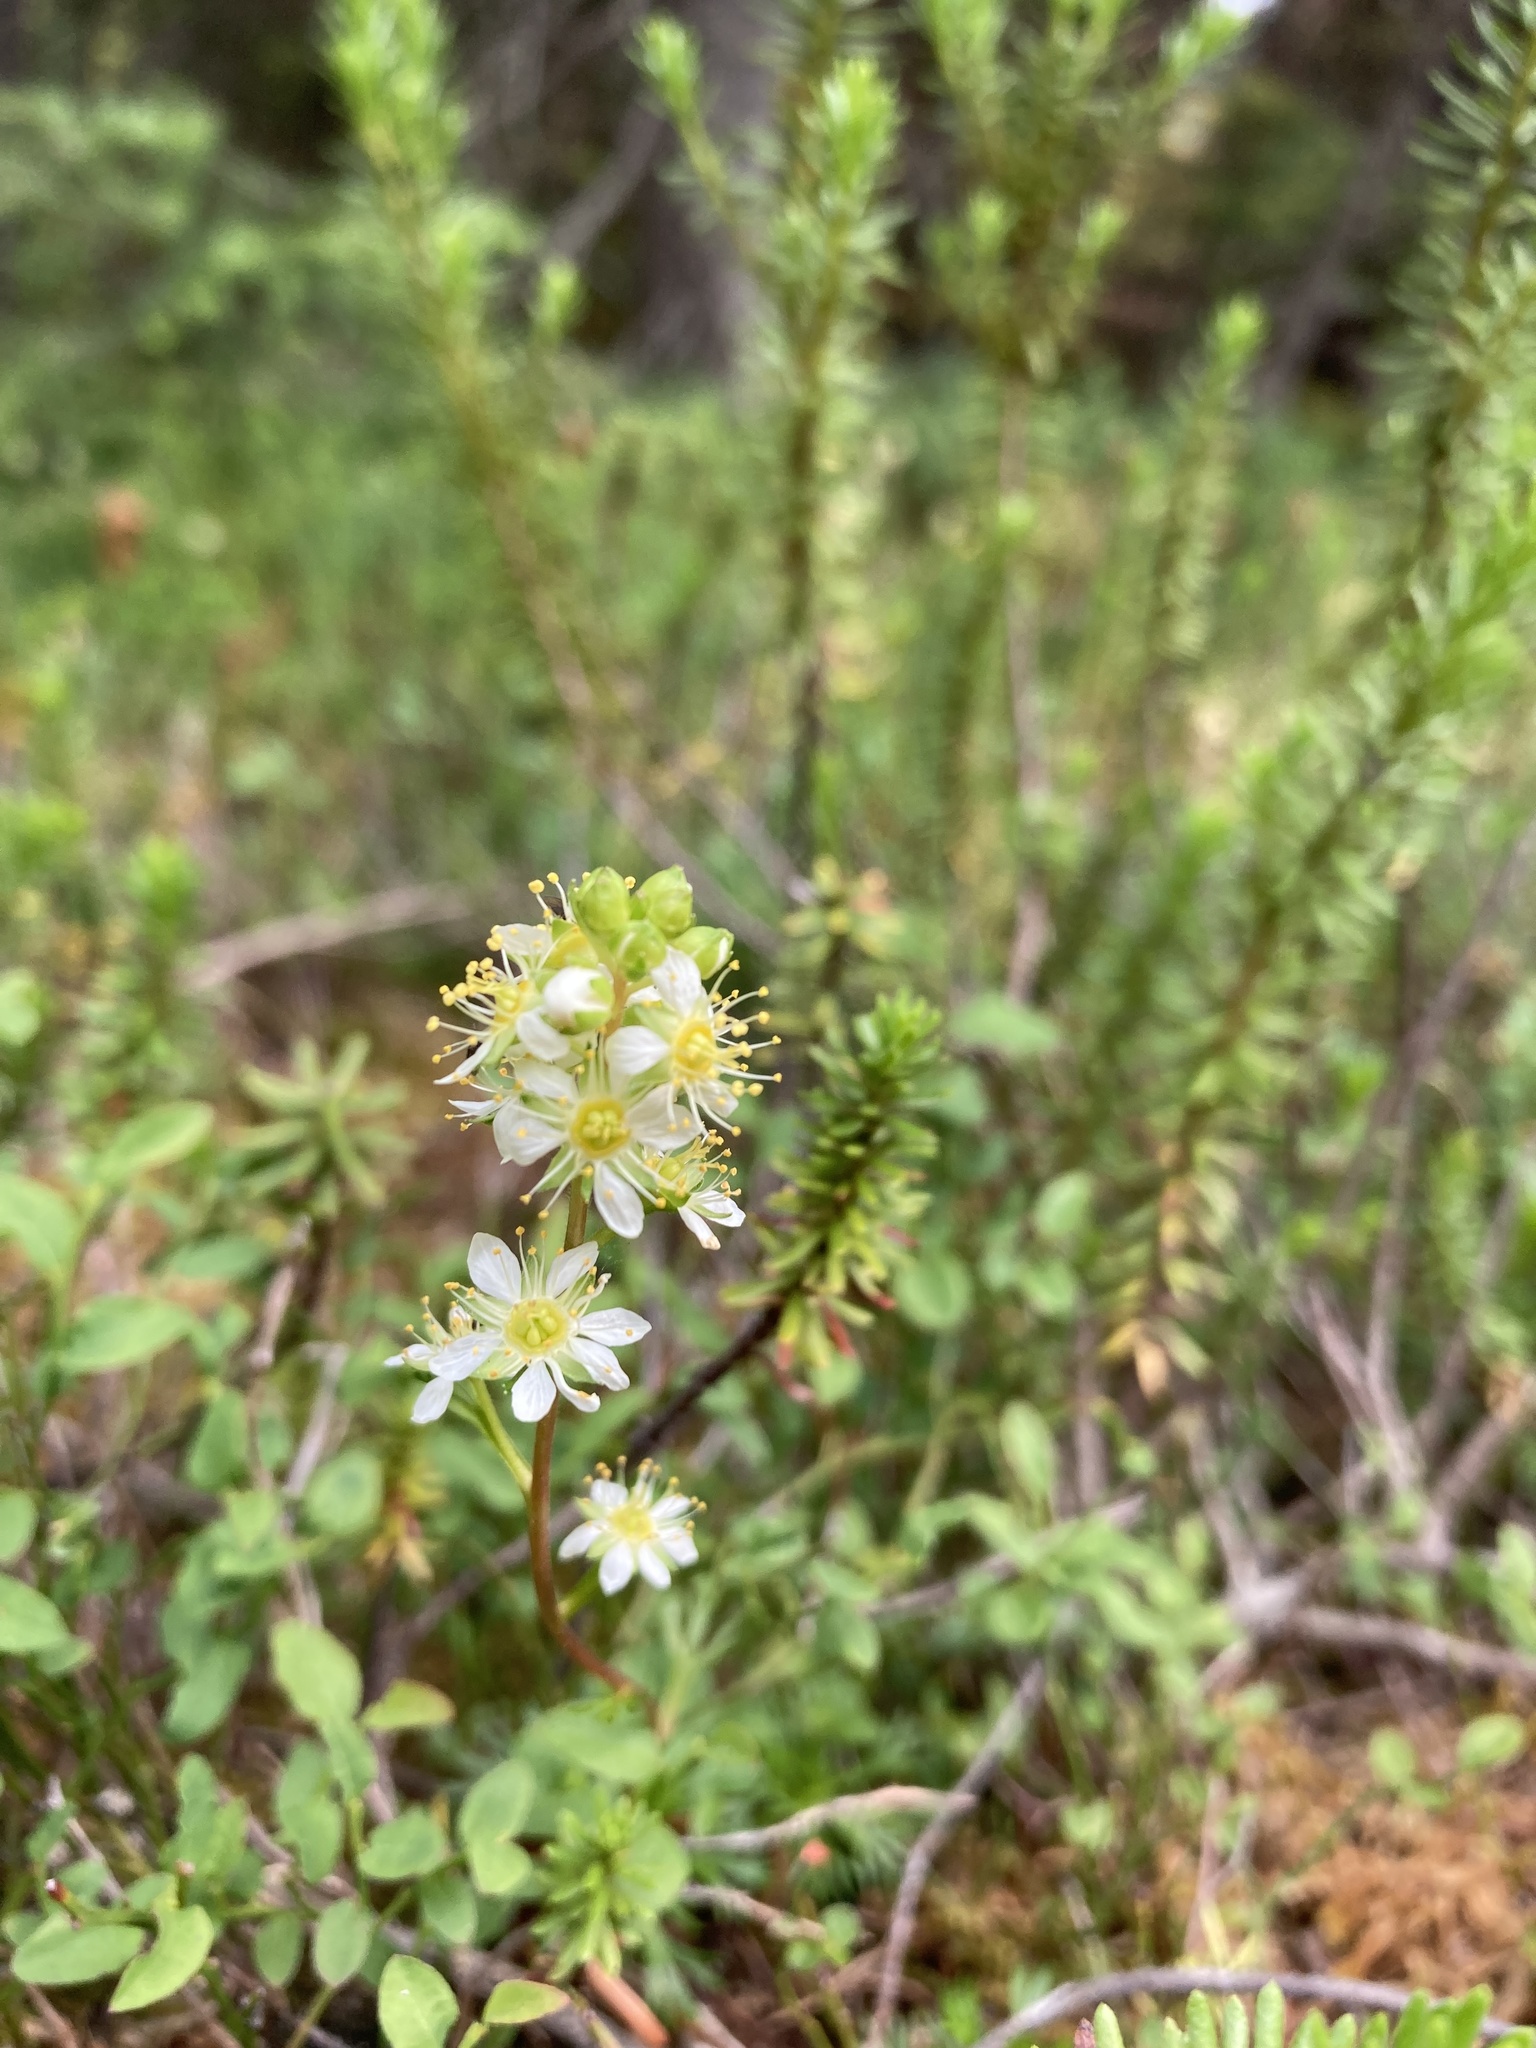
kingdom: Plantae
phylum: Tracheophyta
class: Magnoliopsida
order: Rosales
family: Rosaceae
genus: Luetkea
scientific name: Luetkea pectinata
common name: Partridgefoot
